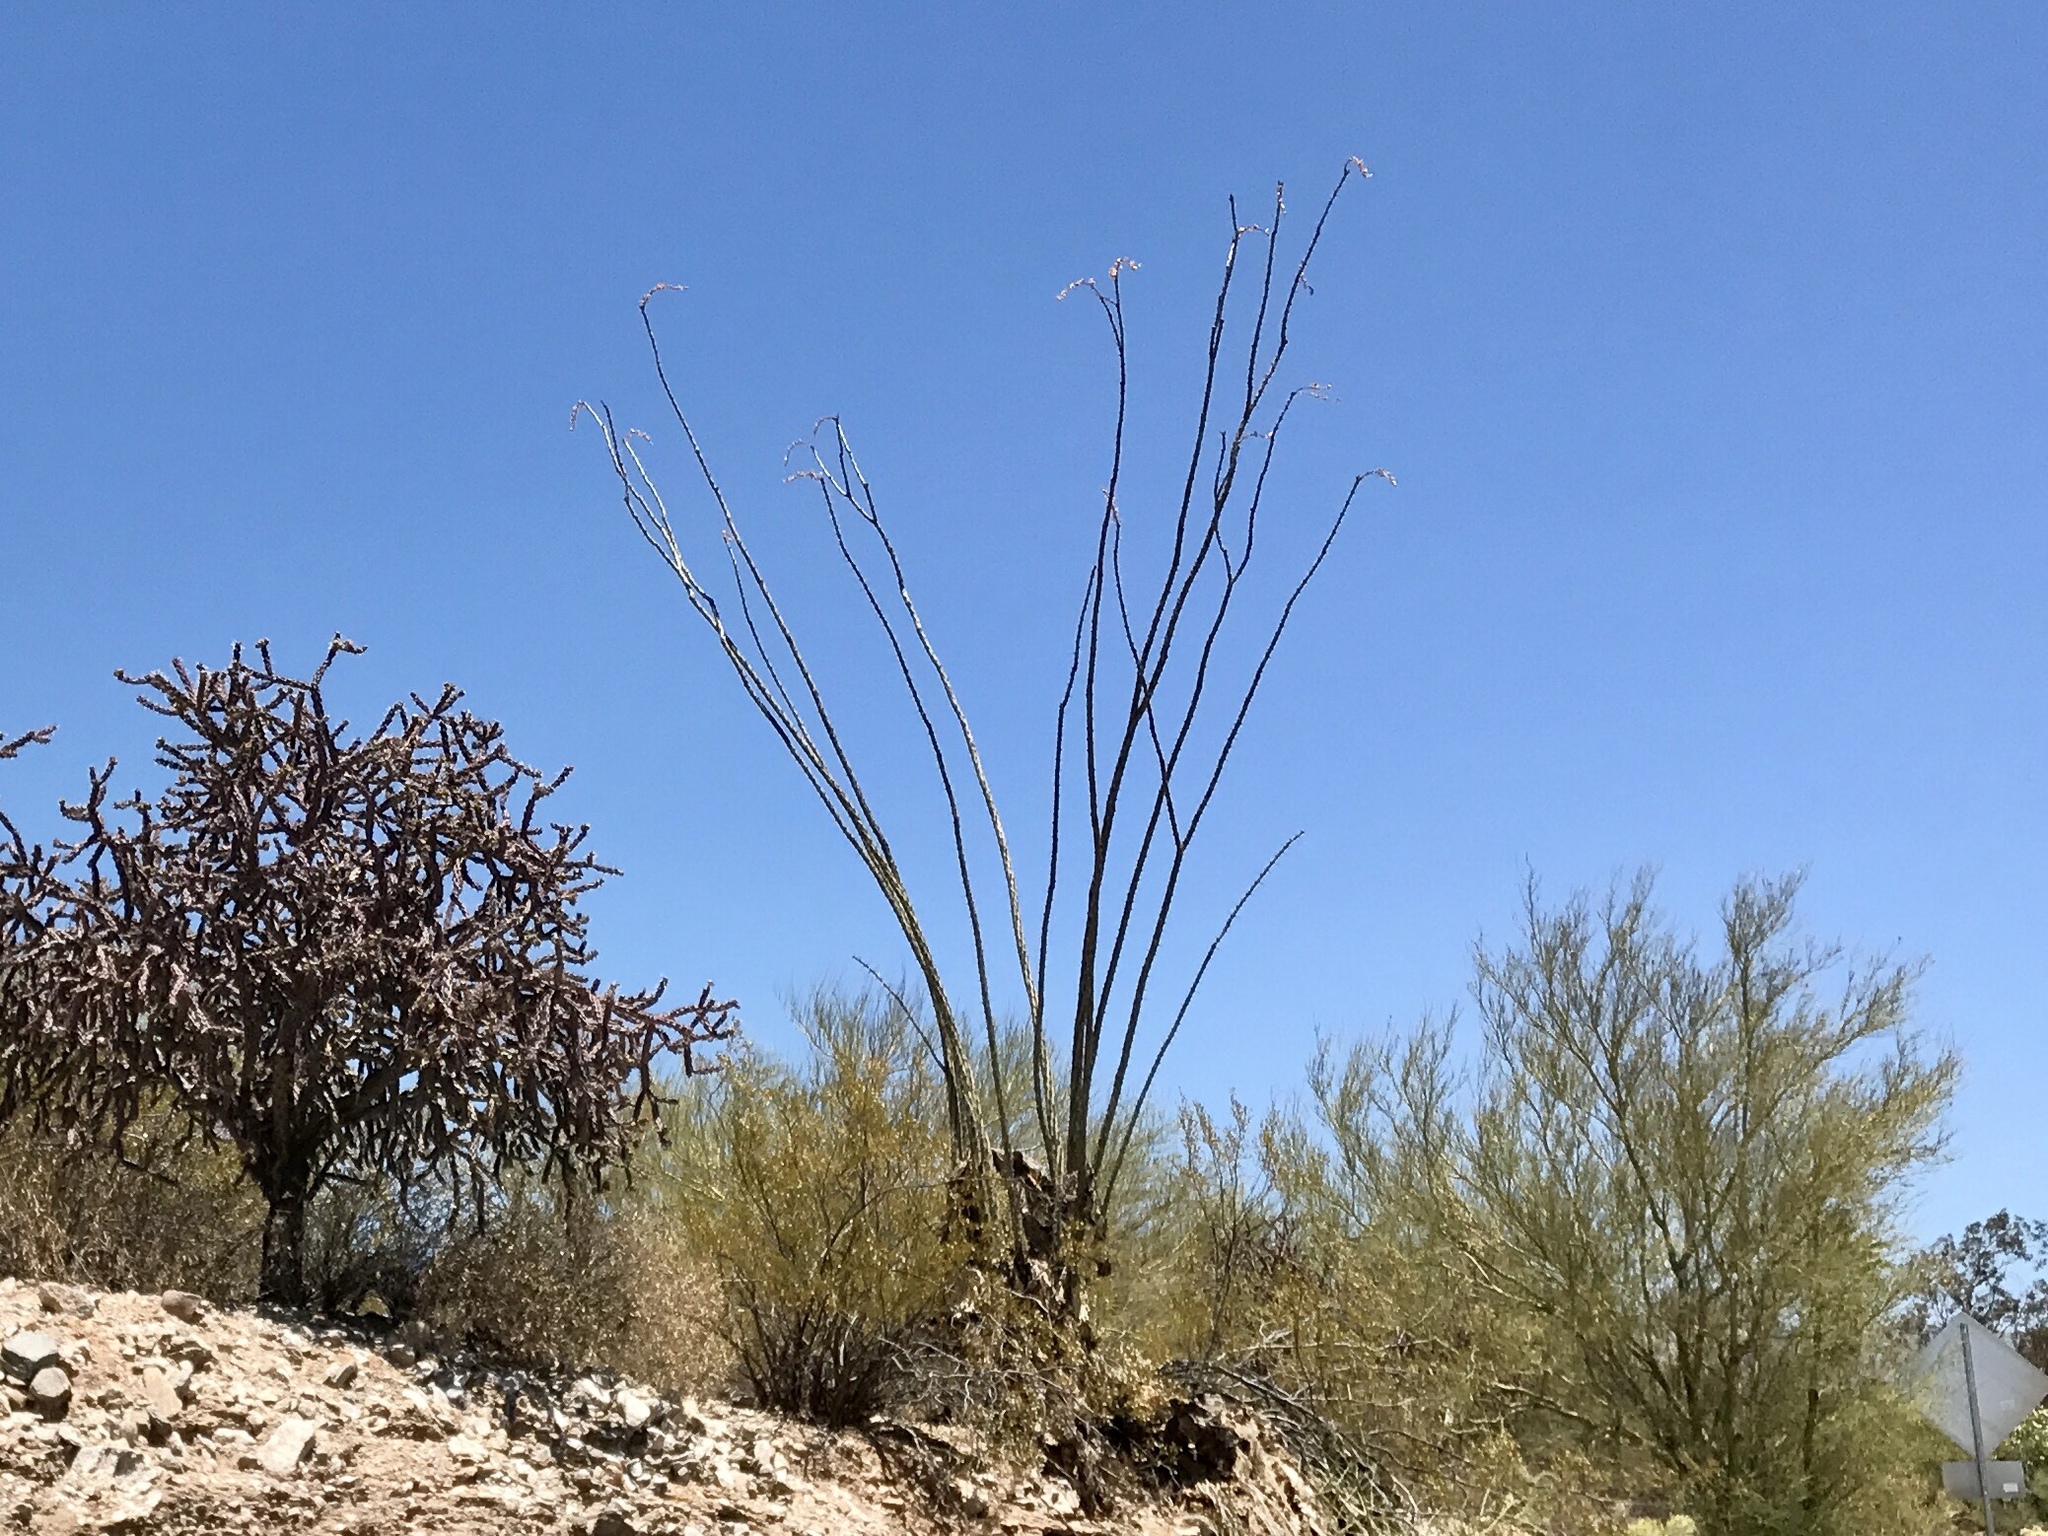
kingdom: Plantae
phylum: Tracheophyta
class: Magnoliopsida
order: Caryophyllales
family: Cactaceae
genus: Cylindropuntia
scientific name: Cylindropuntia thurberi
